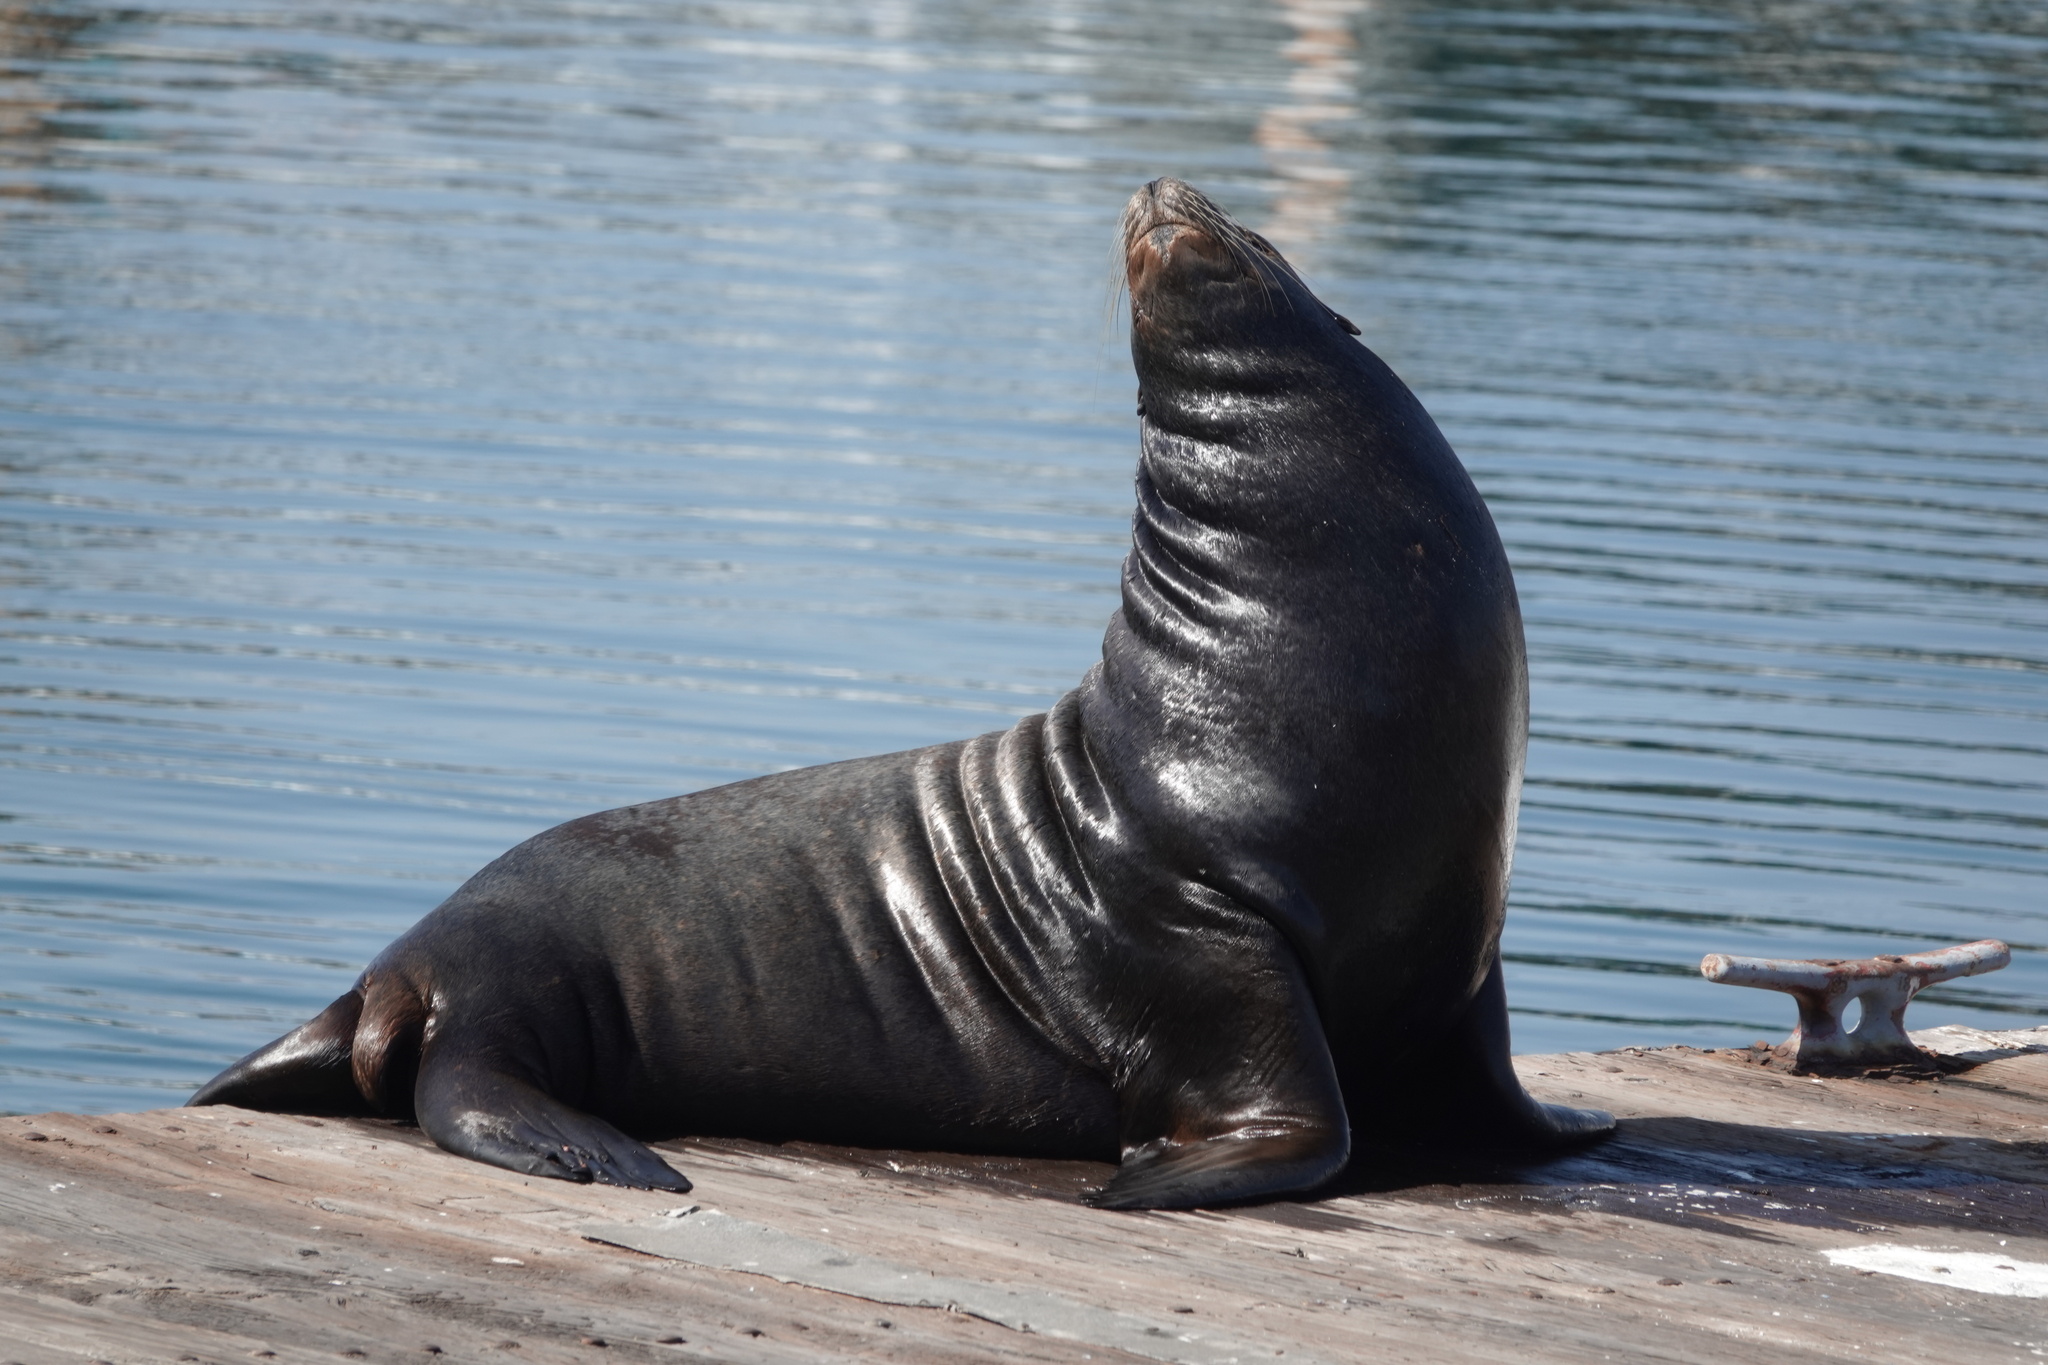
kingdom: Animalia
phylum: Chordata
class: Mammalia
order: Carnivora
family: Otariidae
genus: Zalophus
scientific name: Zalophus californianus
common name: California sea lion
